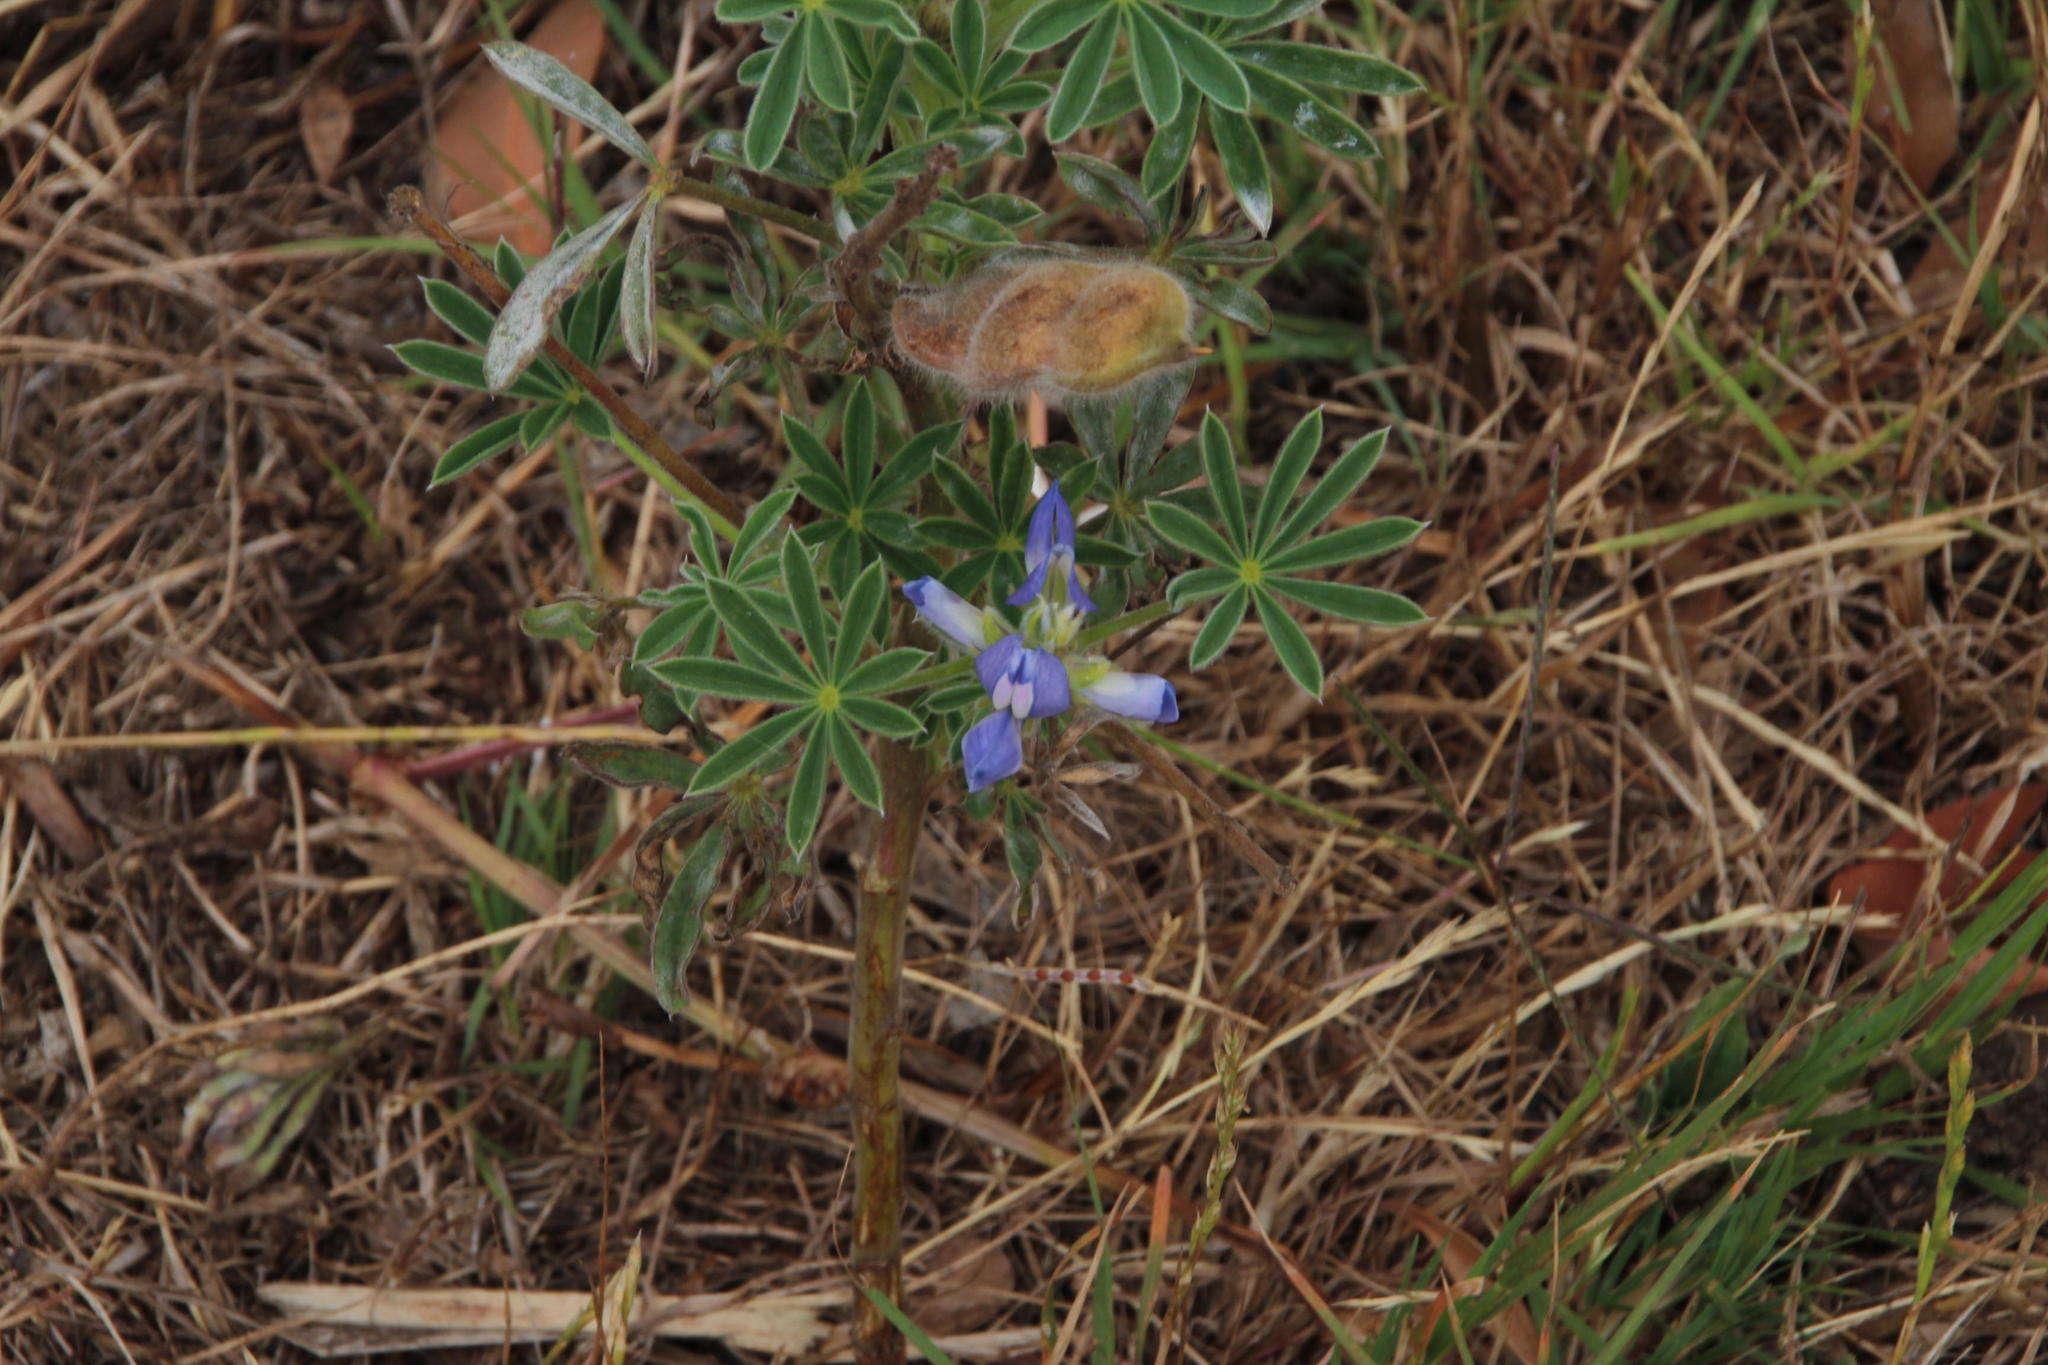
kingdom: Plantae
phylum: Tracheophyta
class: Magnoliopsida
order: Fabales
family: Fabaceae
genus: Lupinus
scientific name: Lupinus cosentinii
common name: Hairy blue lupin
